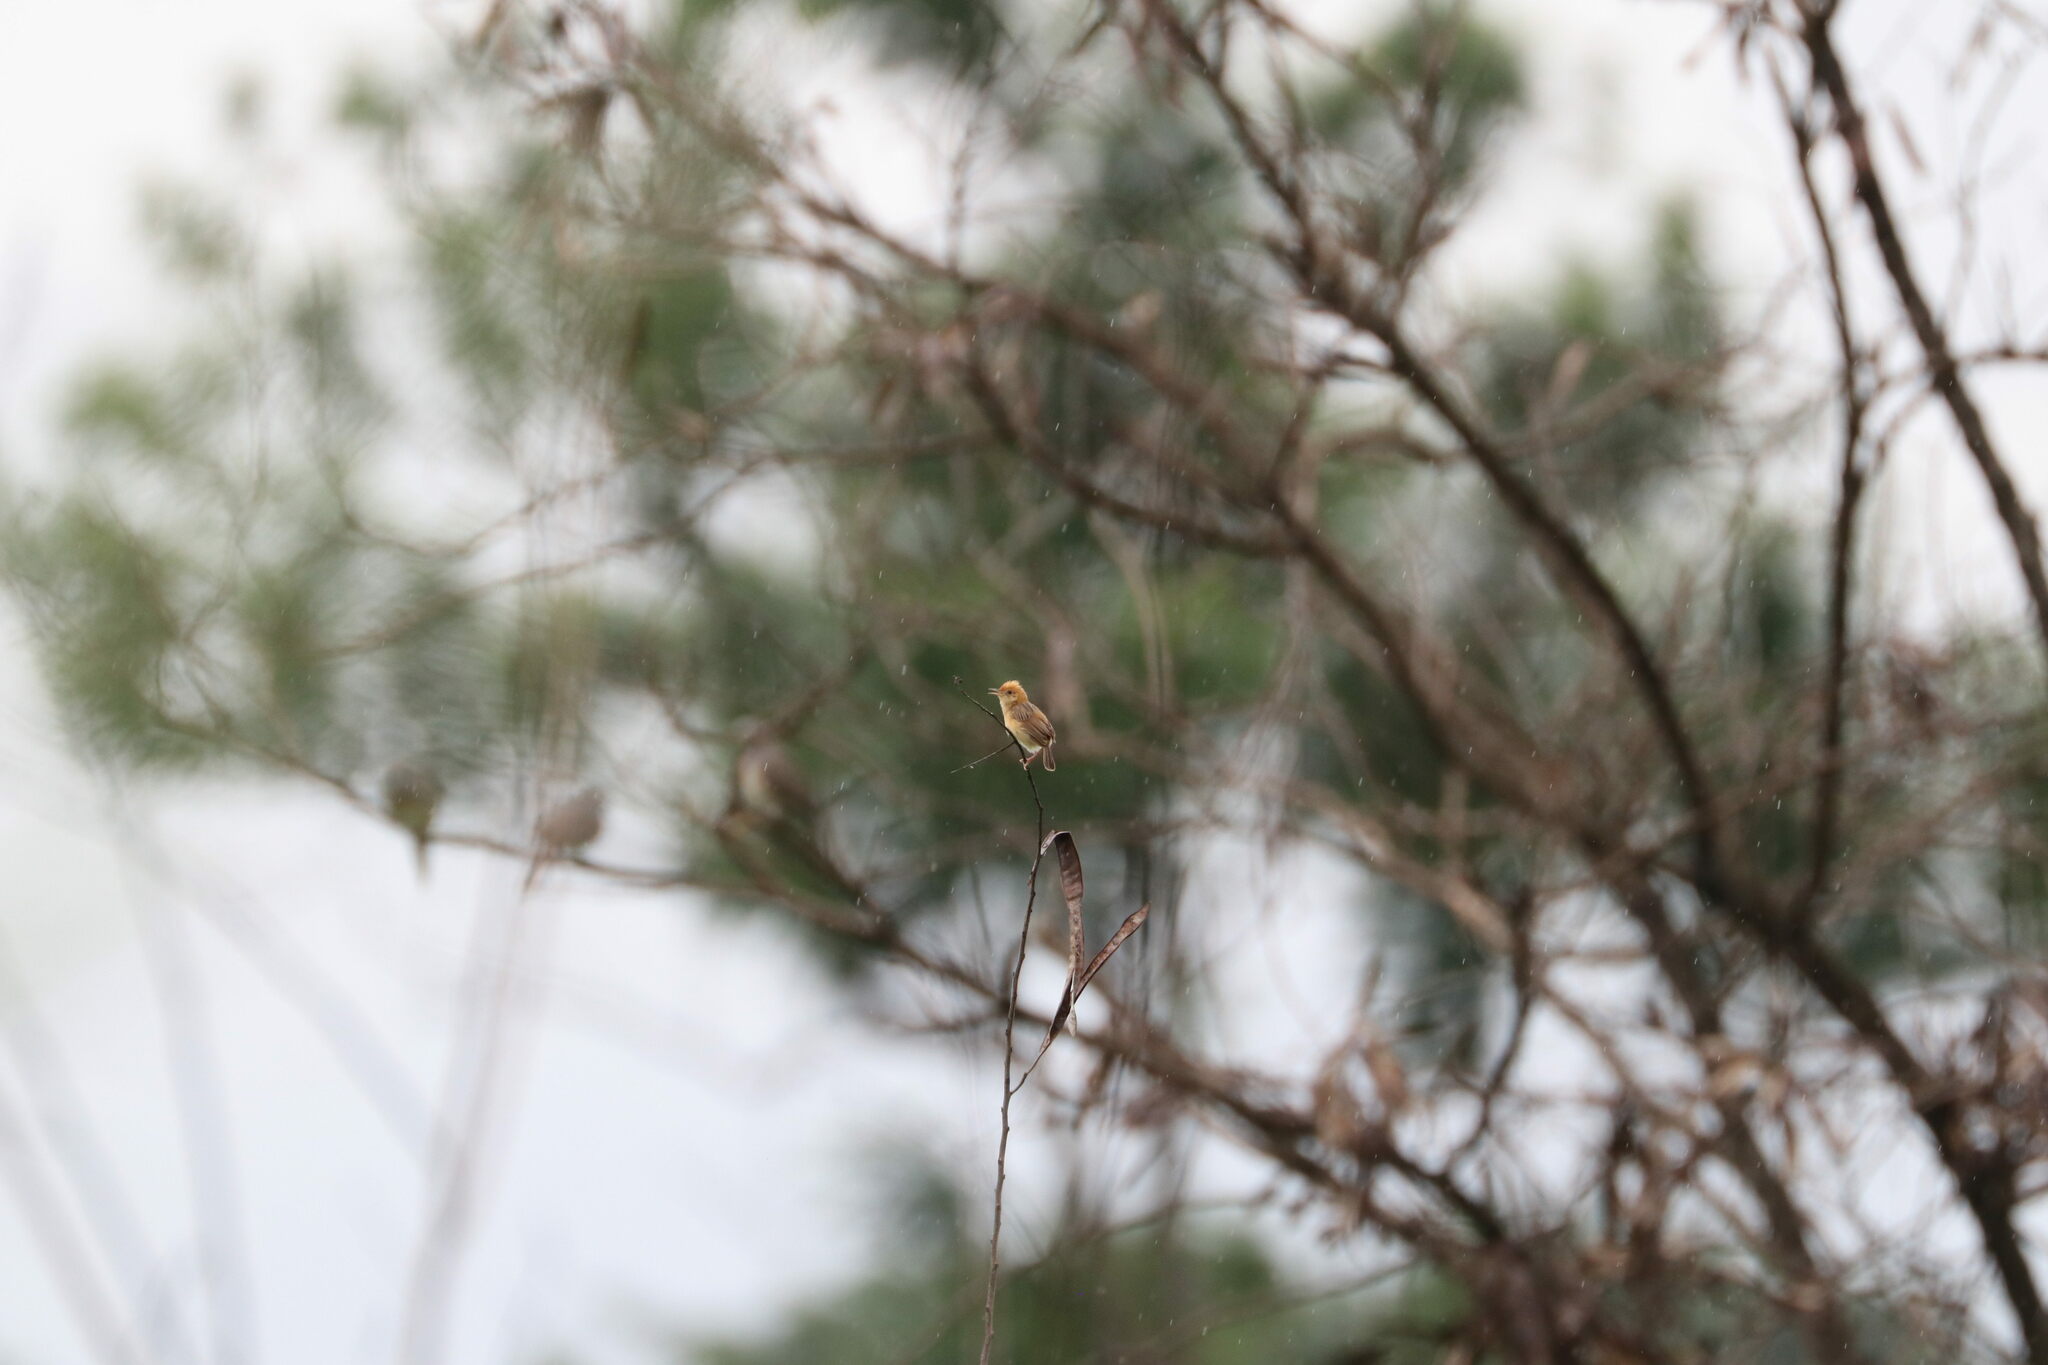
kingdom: Animalia
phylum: Chordata
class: Aves
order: Passeriformes
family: Cisticolidae
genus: Cisticola
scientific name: Cisticola exilis
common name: Golden-headed cisticola
